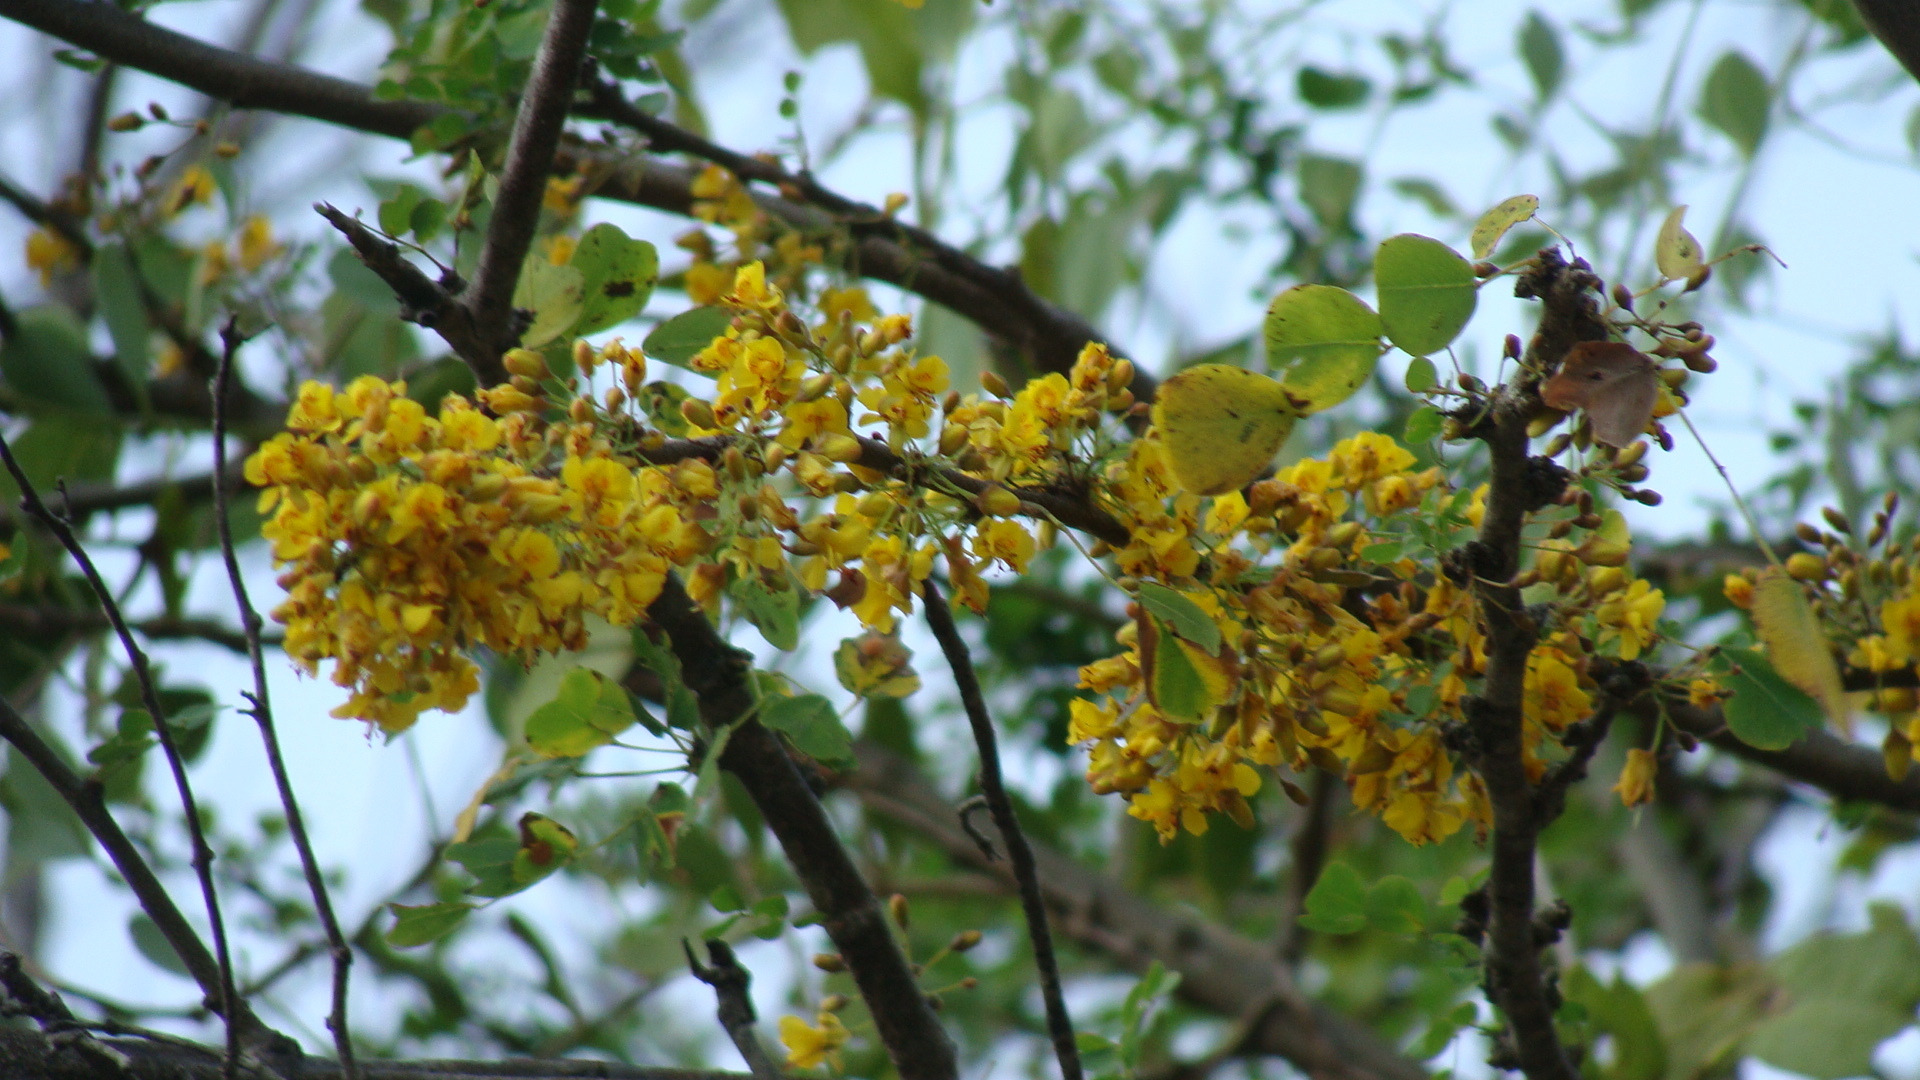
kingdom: Plantae
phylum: Tracheophyta
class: Magnoliopsida
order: Fabales
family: Fabaceae
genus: Haematoxylum
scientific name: Haematoxylum brasiletto
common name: Peachwood
